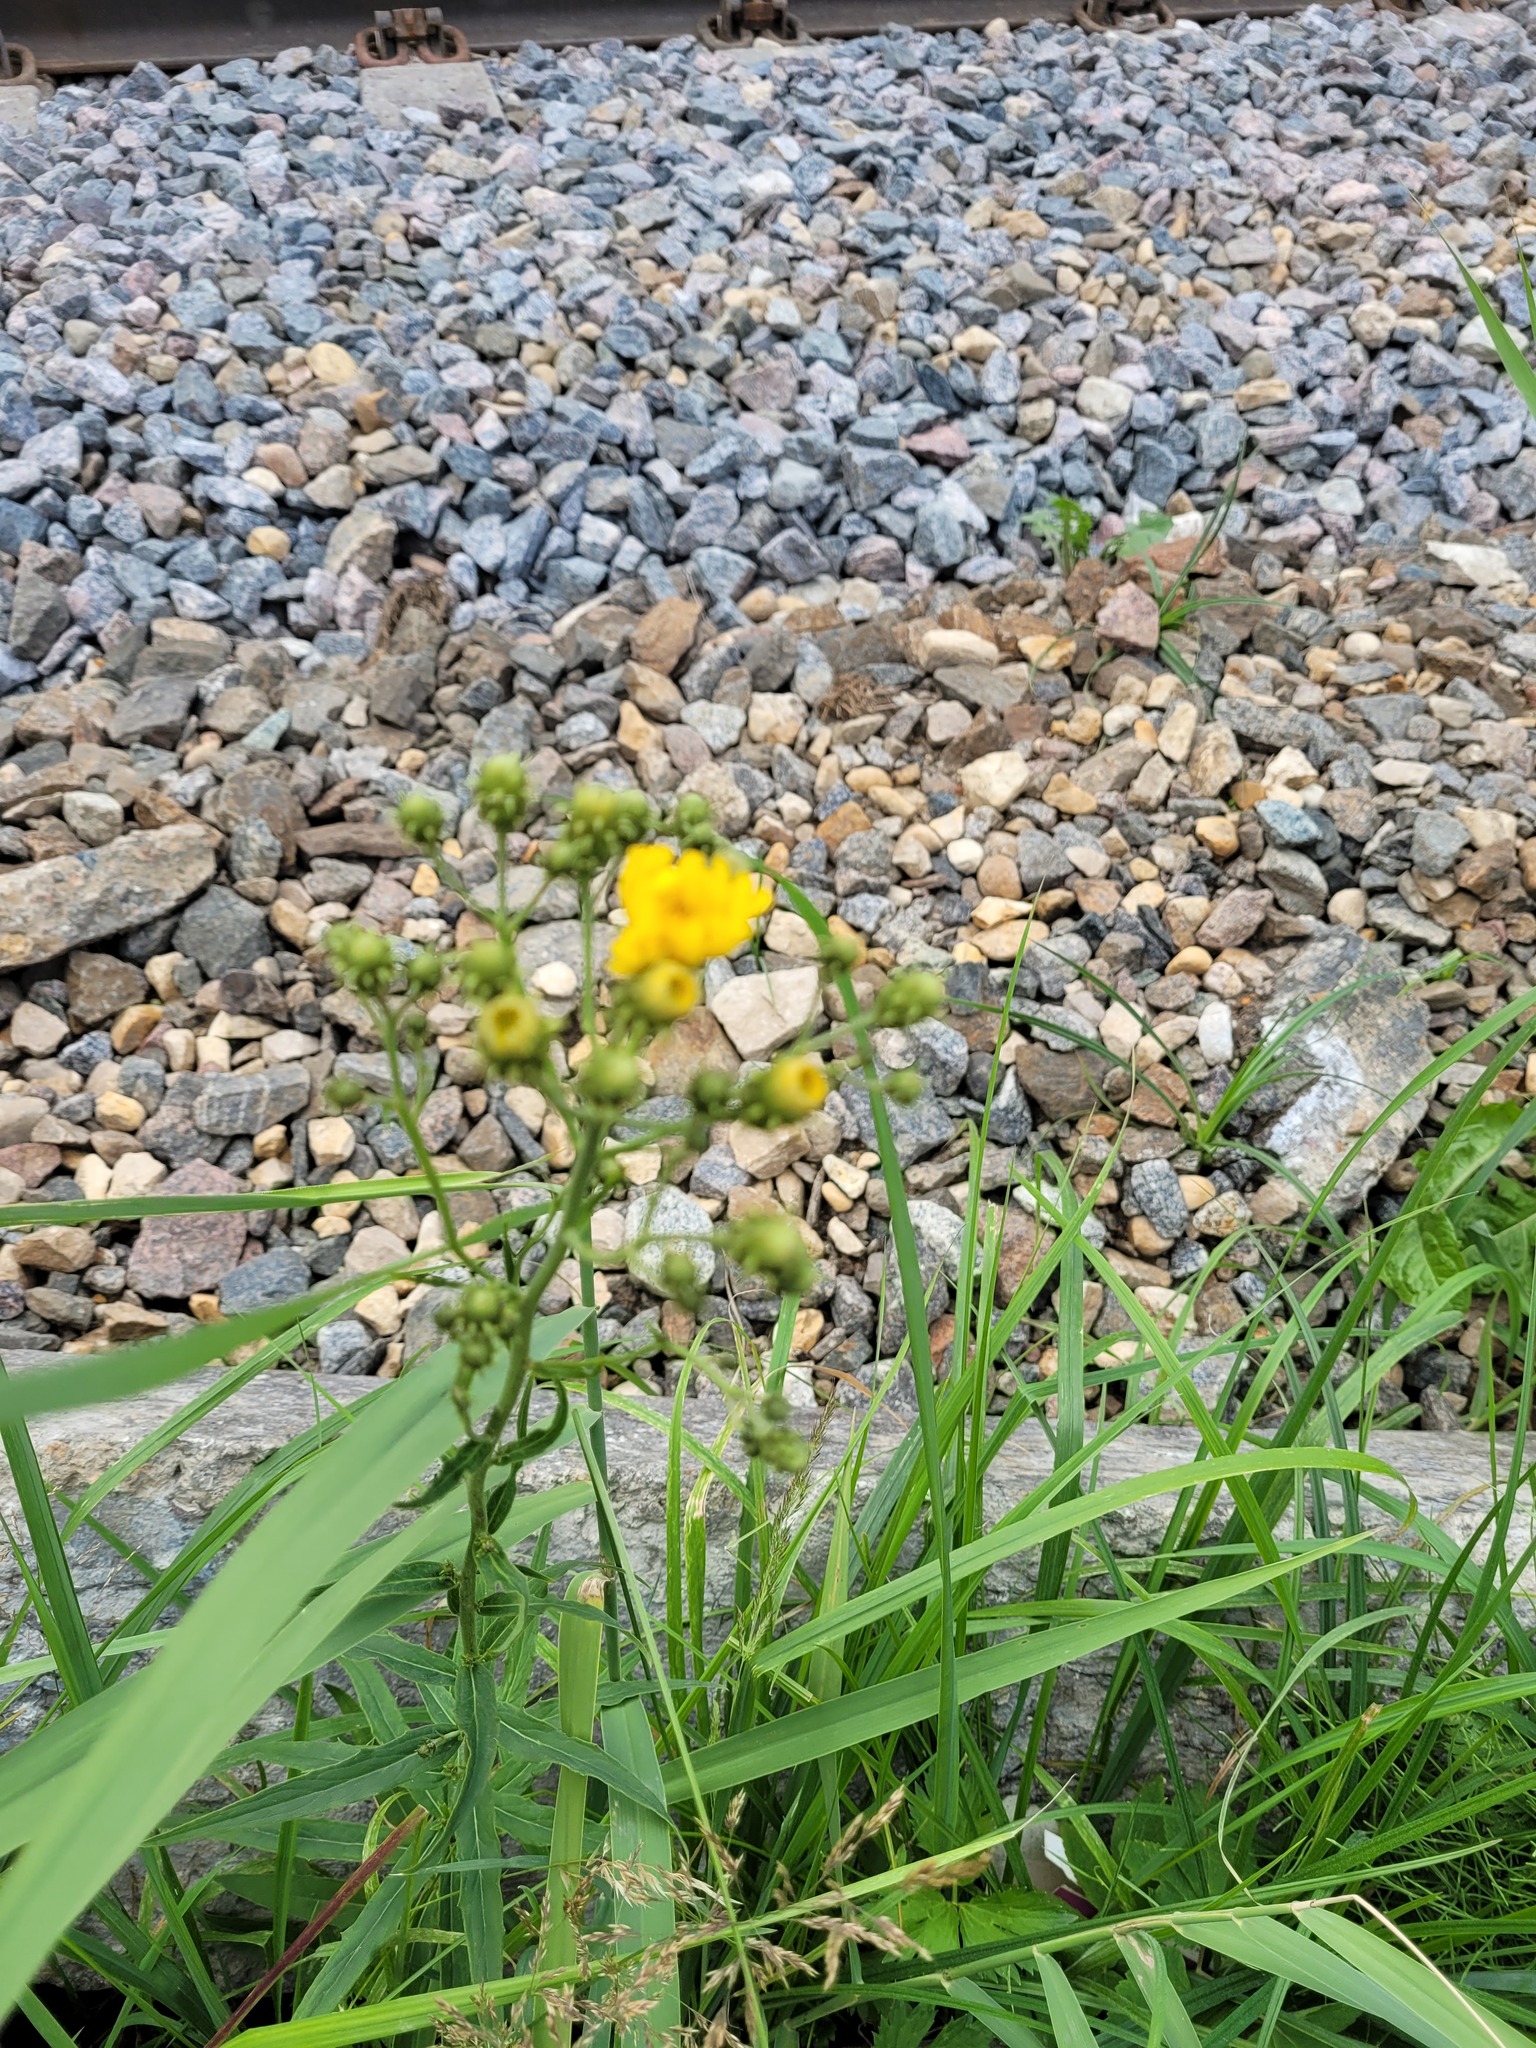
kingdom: Plantae
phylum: Tracheophyta
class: Magnoliopsida
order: Asterales
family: Asteraceae
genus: Hieracium
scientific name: Hieracium umbellatum
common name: Northern hawkweed
